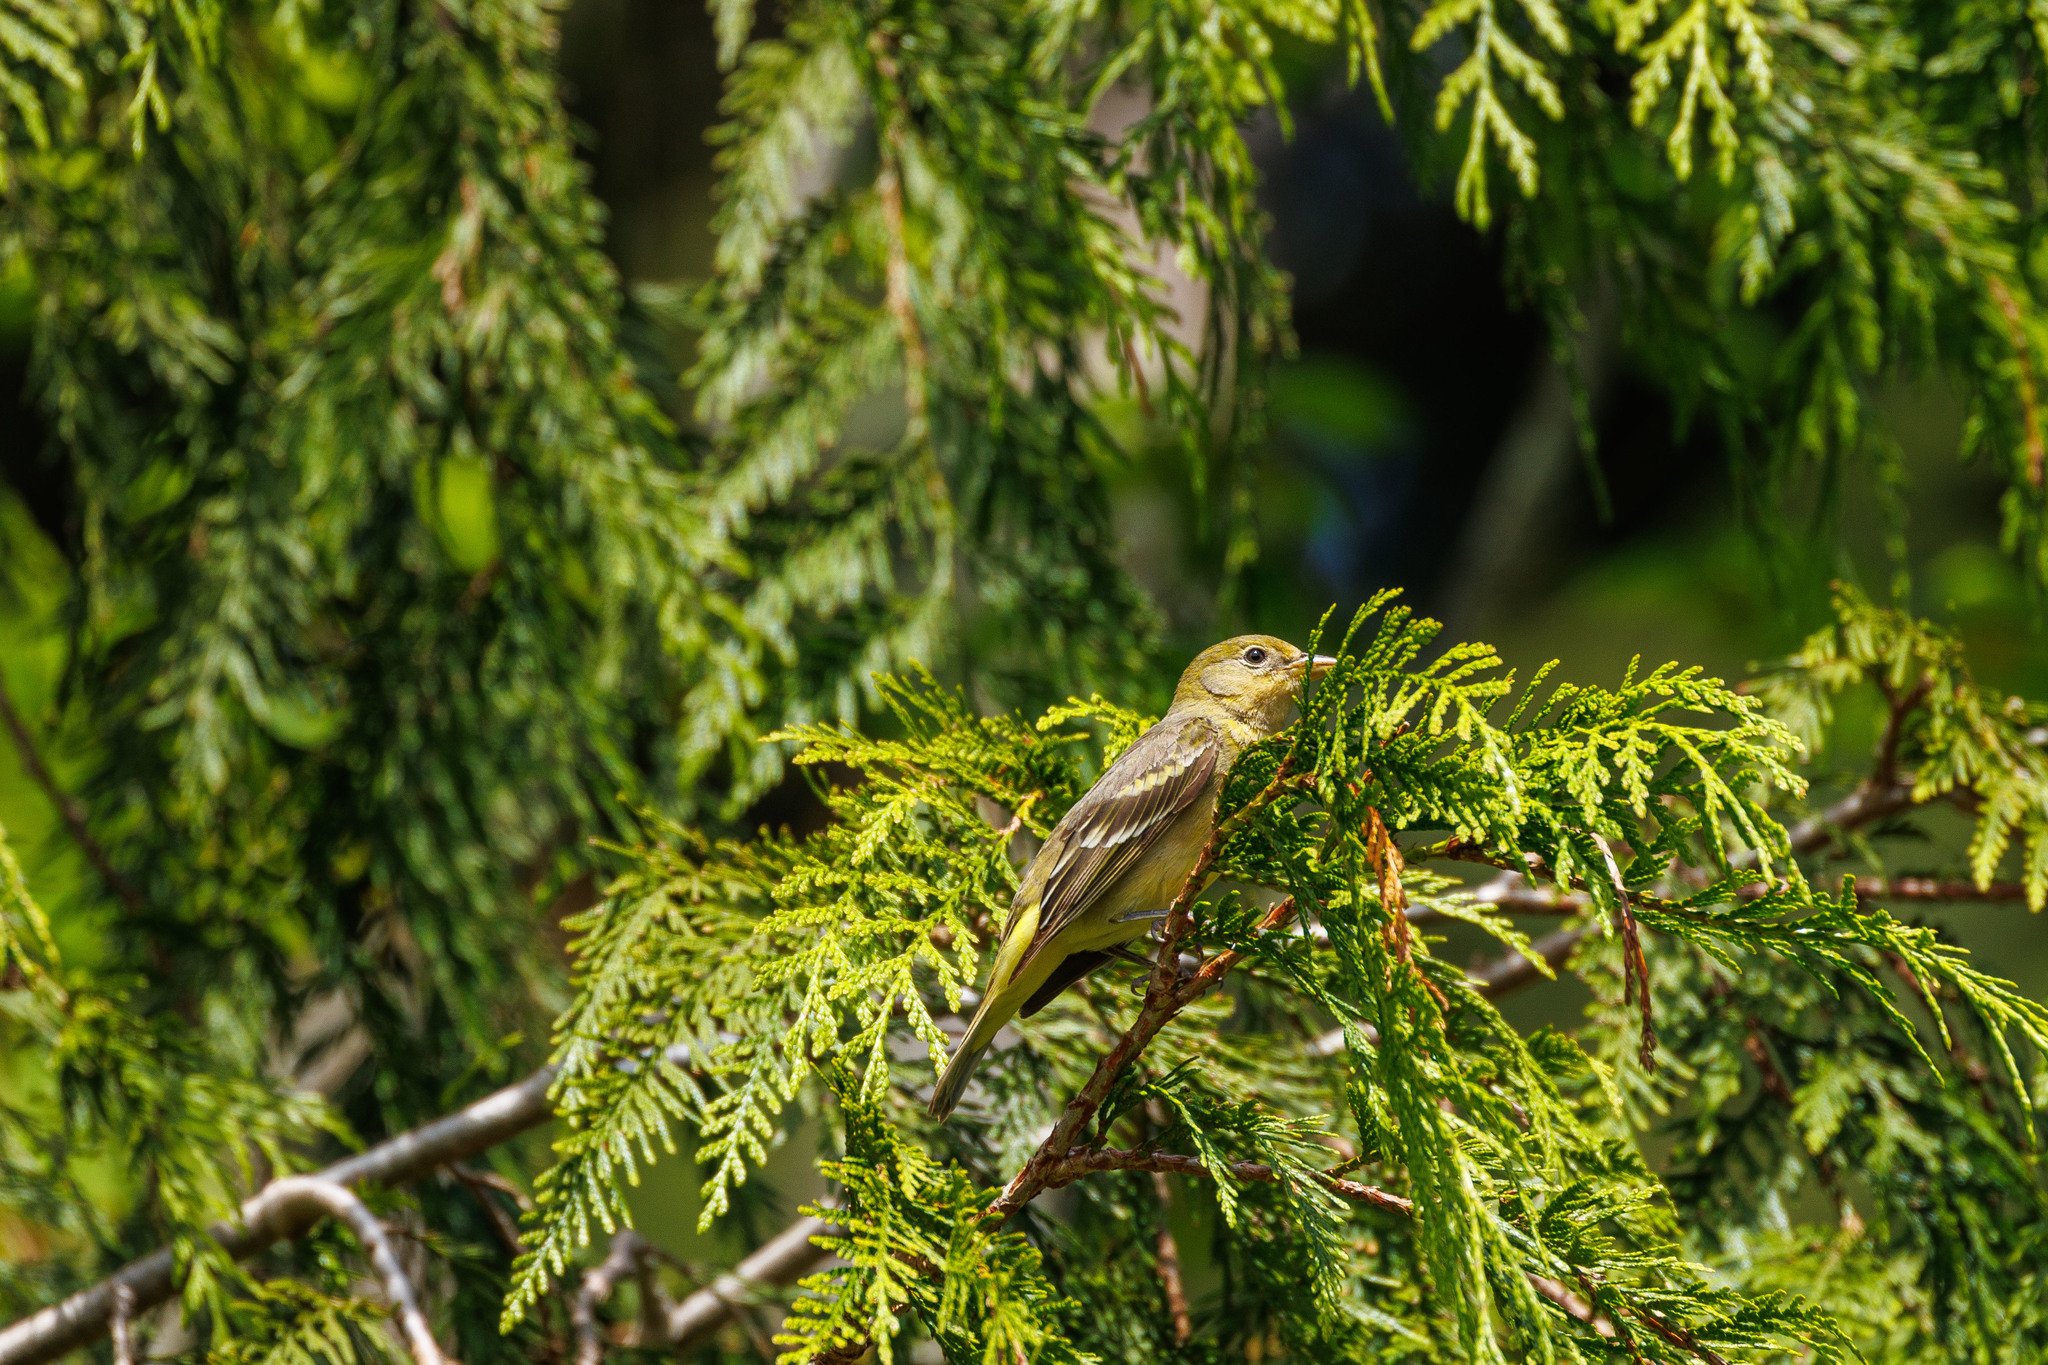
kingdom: Animalia
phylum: Chordata
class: Aves
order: Passeriformes
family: Cardinalidae
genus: Piranga
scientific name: Piranga ludoviciana
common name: Western tanager
